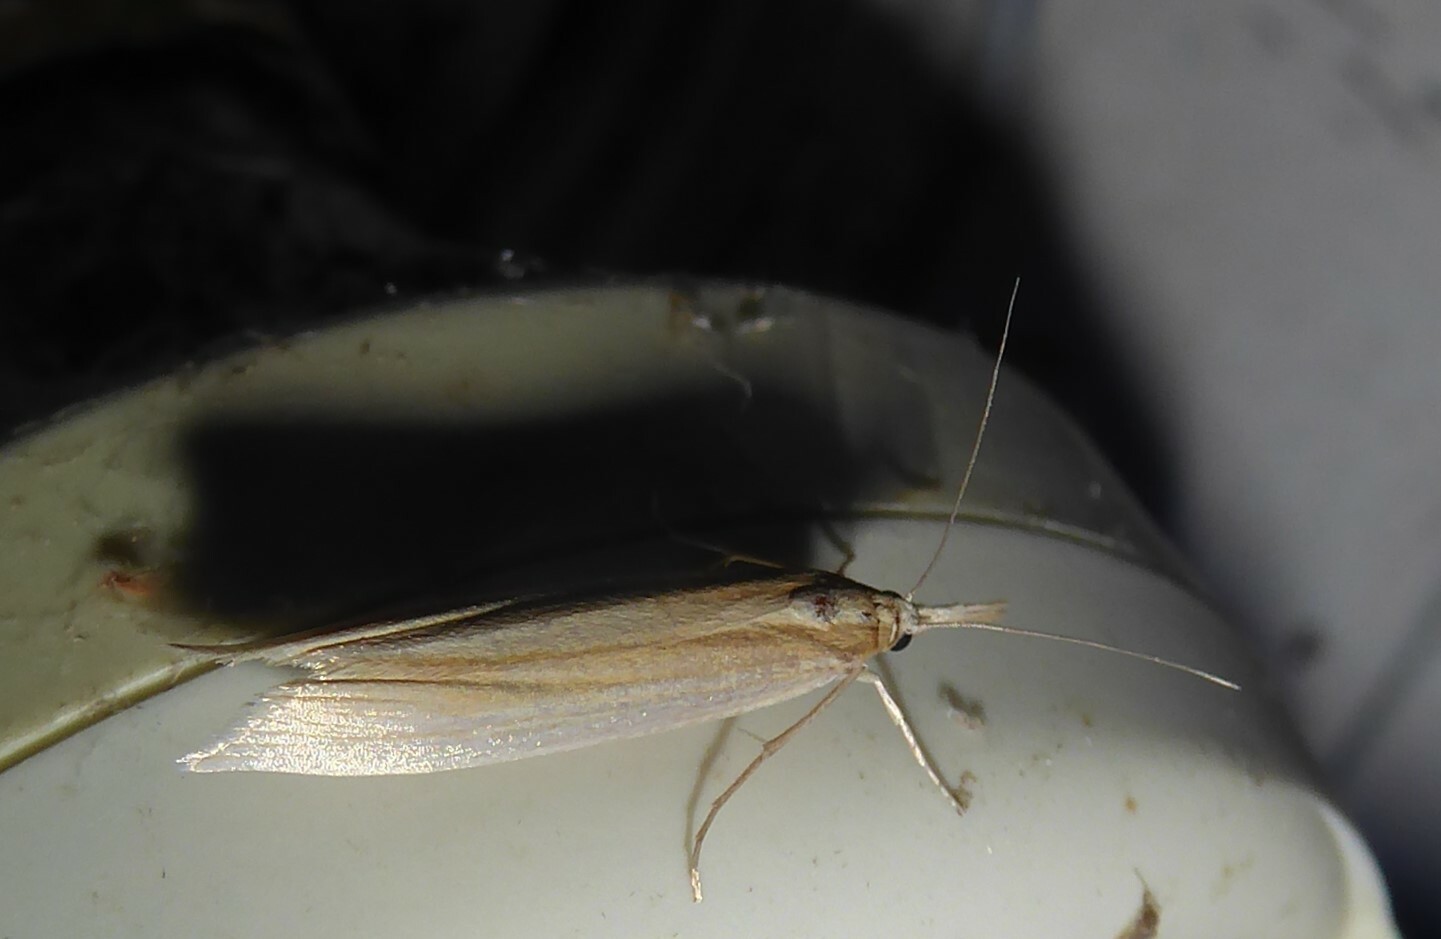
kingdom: Animalia
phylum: Arthropoda
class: Insecta
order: Lepidoptera
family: Crambidae
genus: Orocrambus
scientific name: Orocrambus angustipennis
